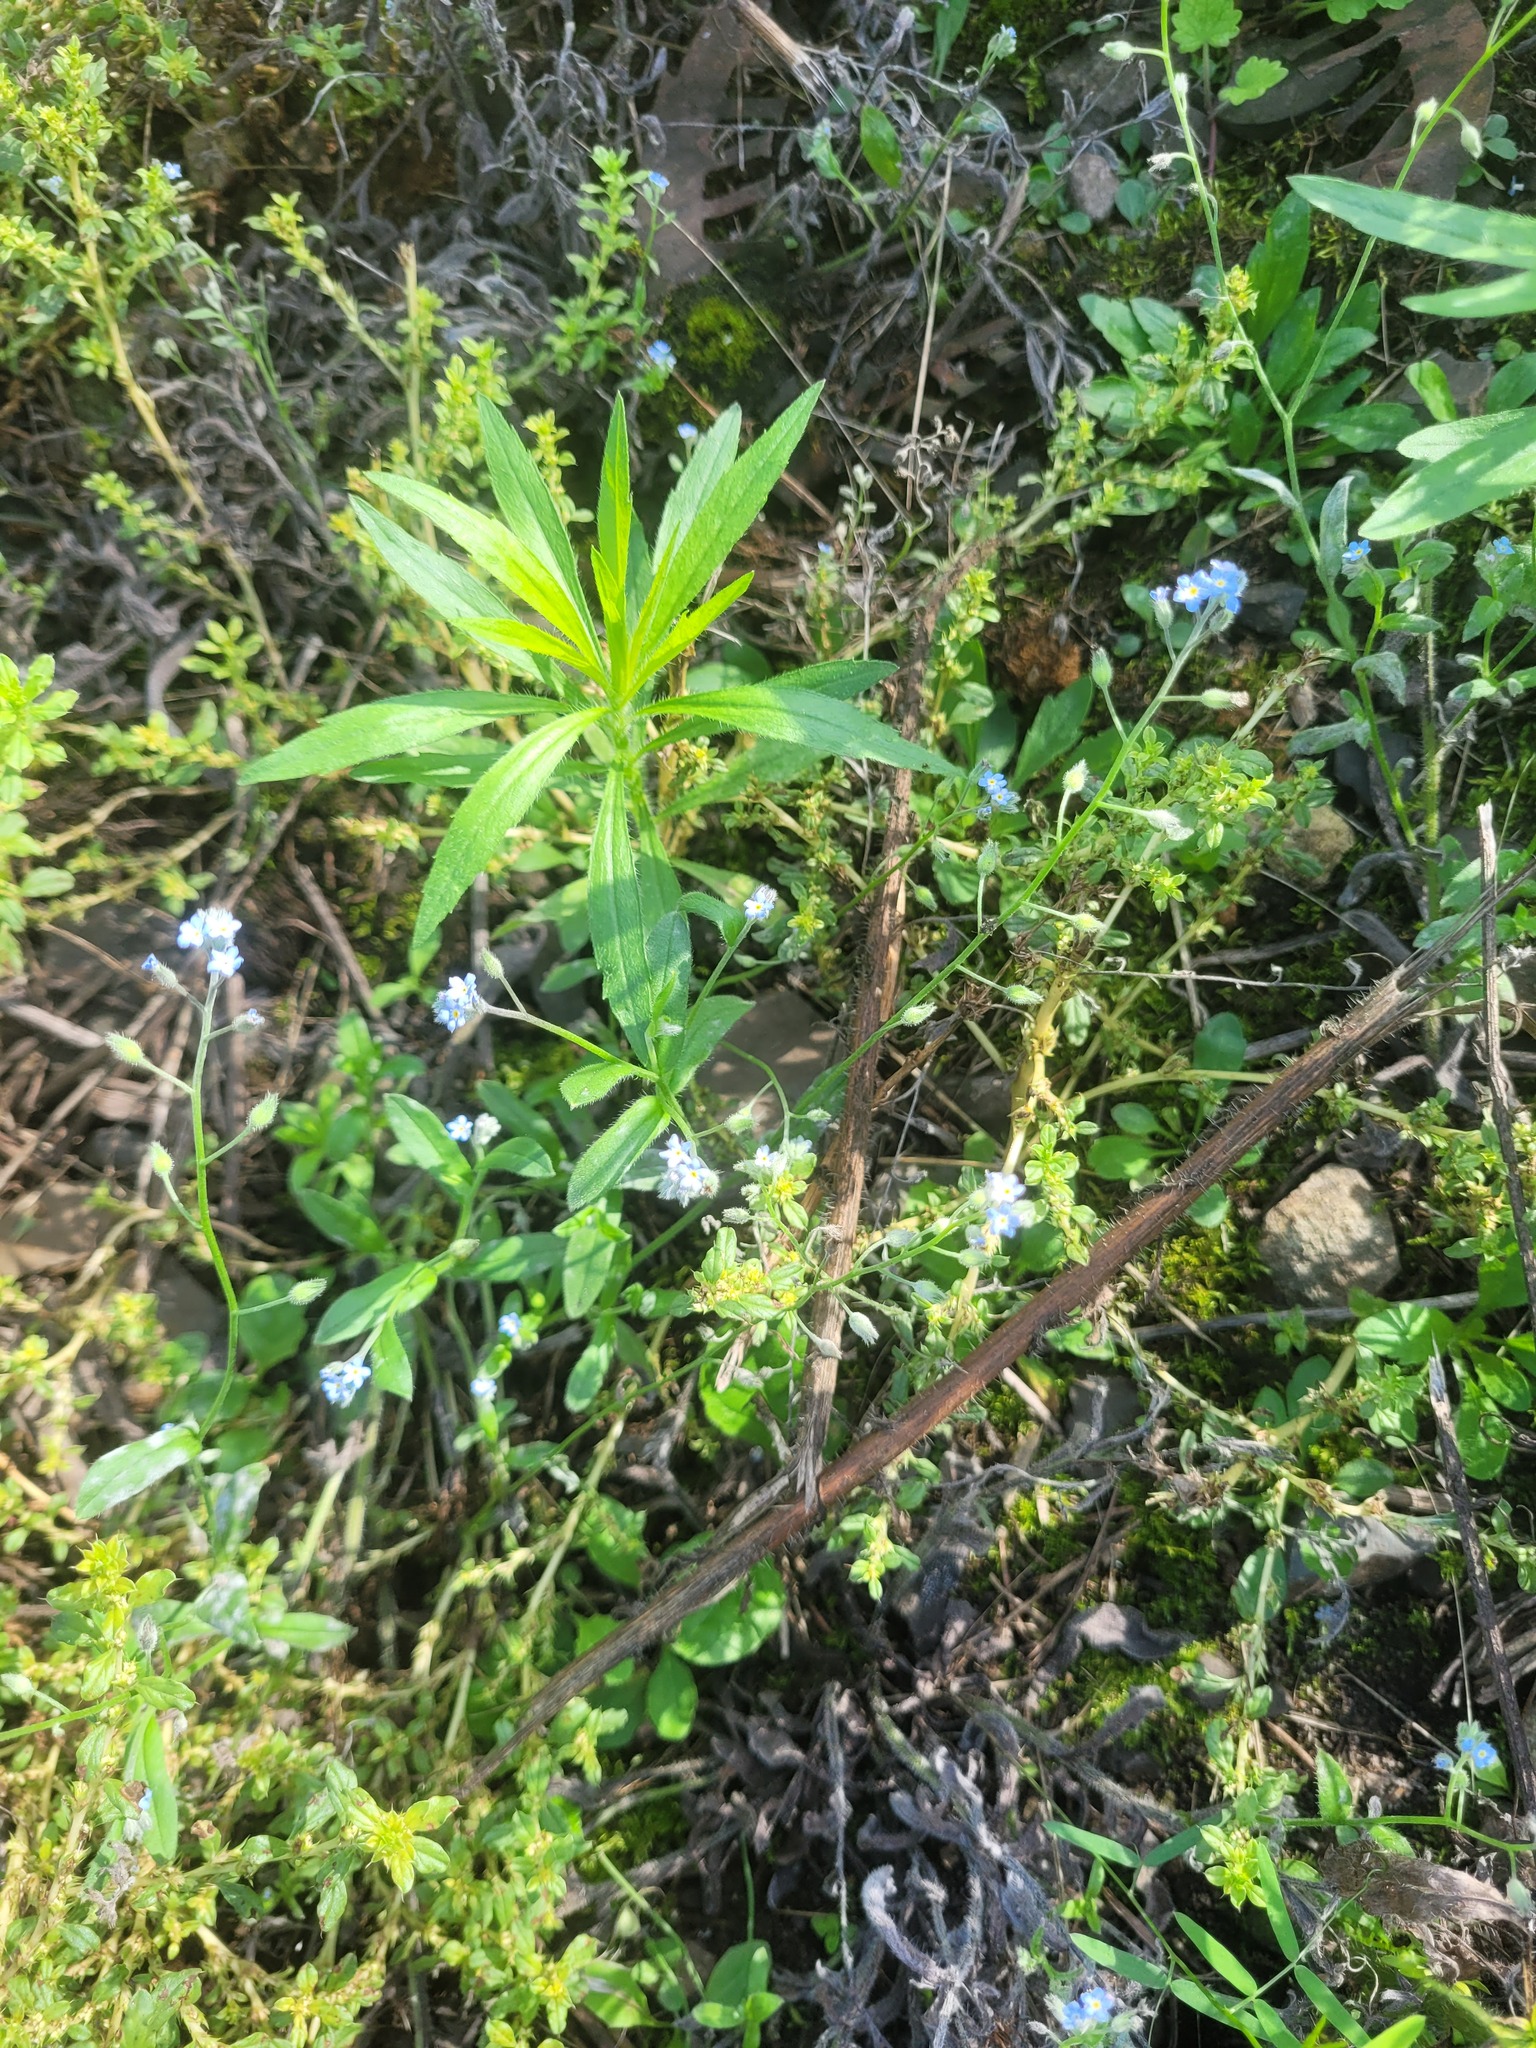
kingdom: Plantae
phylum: Tracheophyta
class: Magnoliopsida
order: Boraginales
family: Boraginaceae
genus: Myosotis
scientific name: Myosotis arvensis
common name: Field forget-me-not
